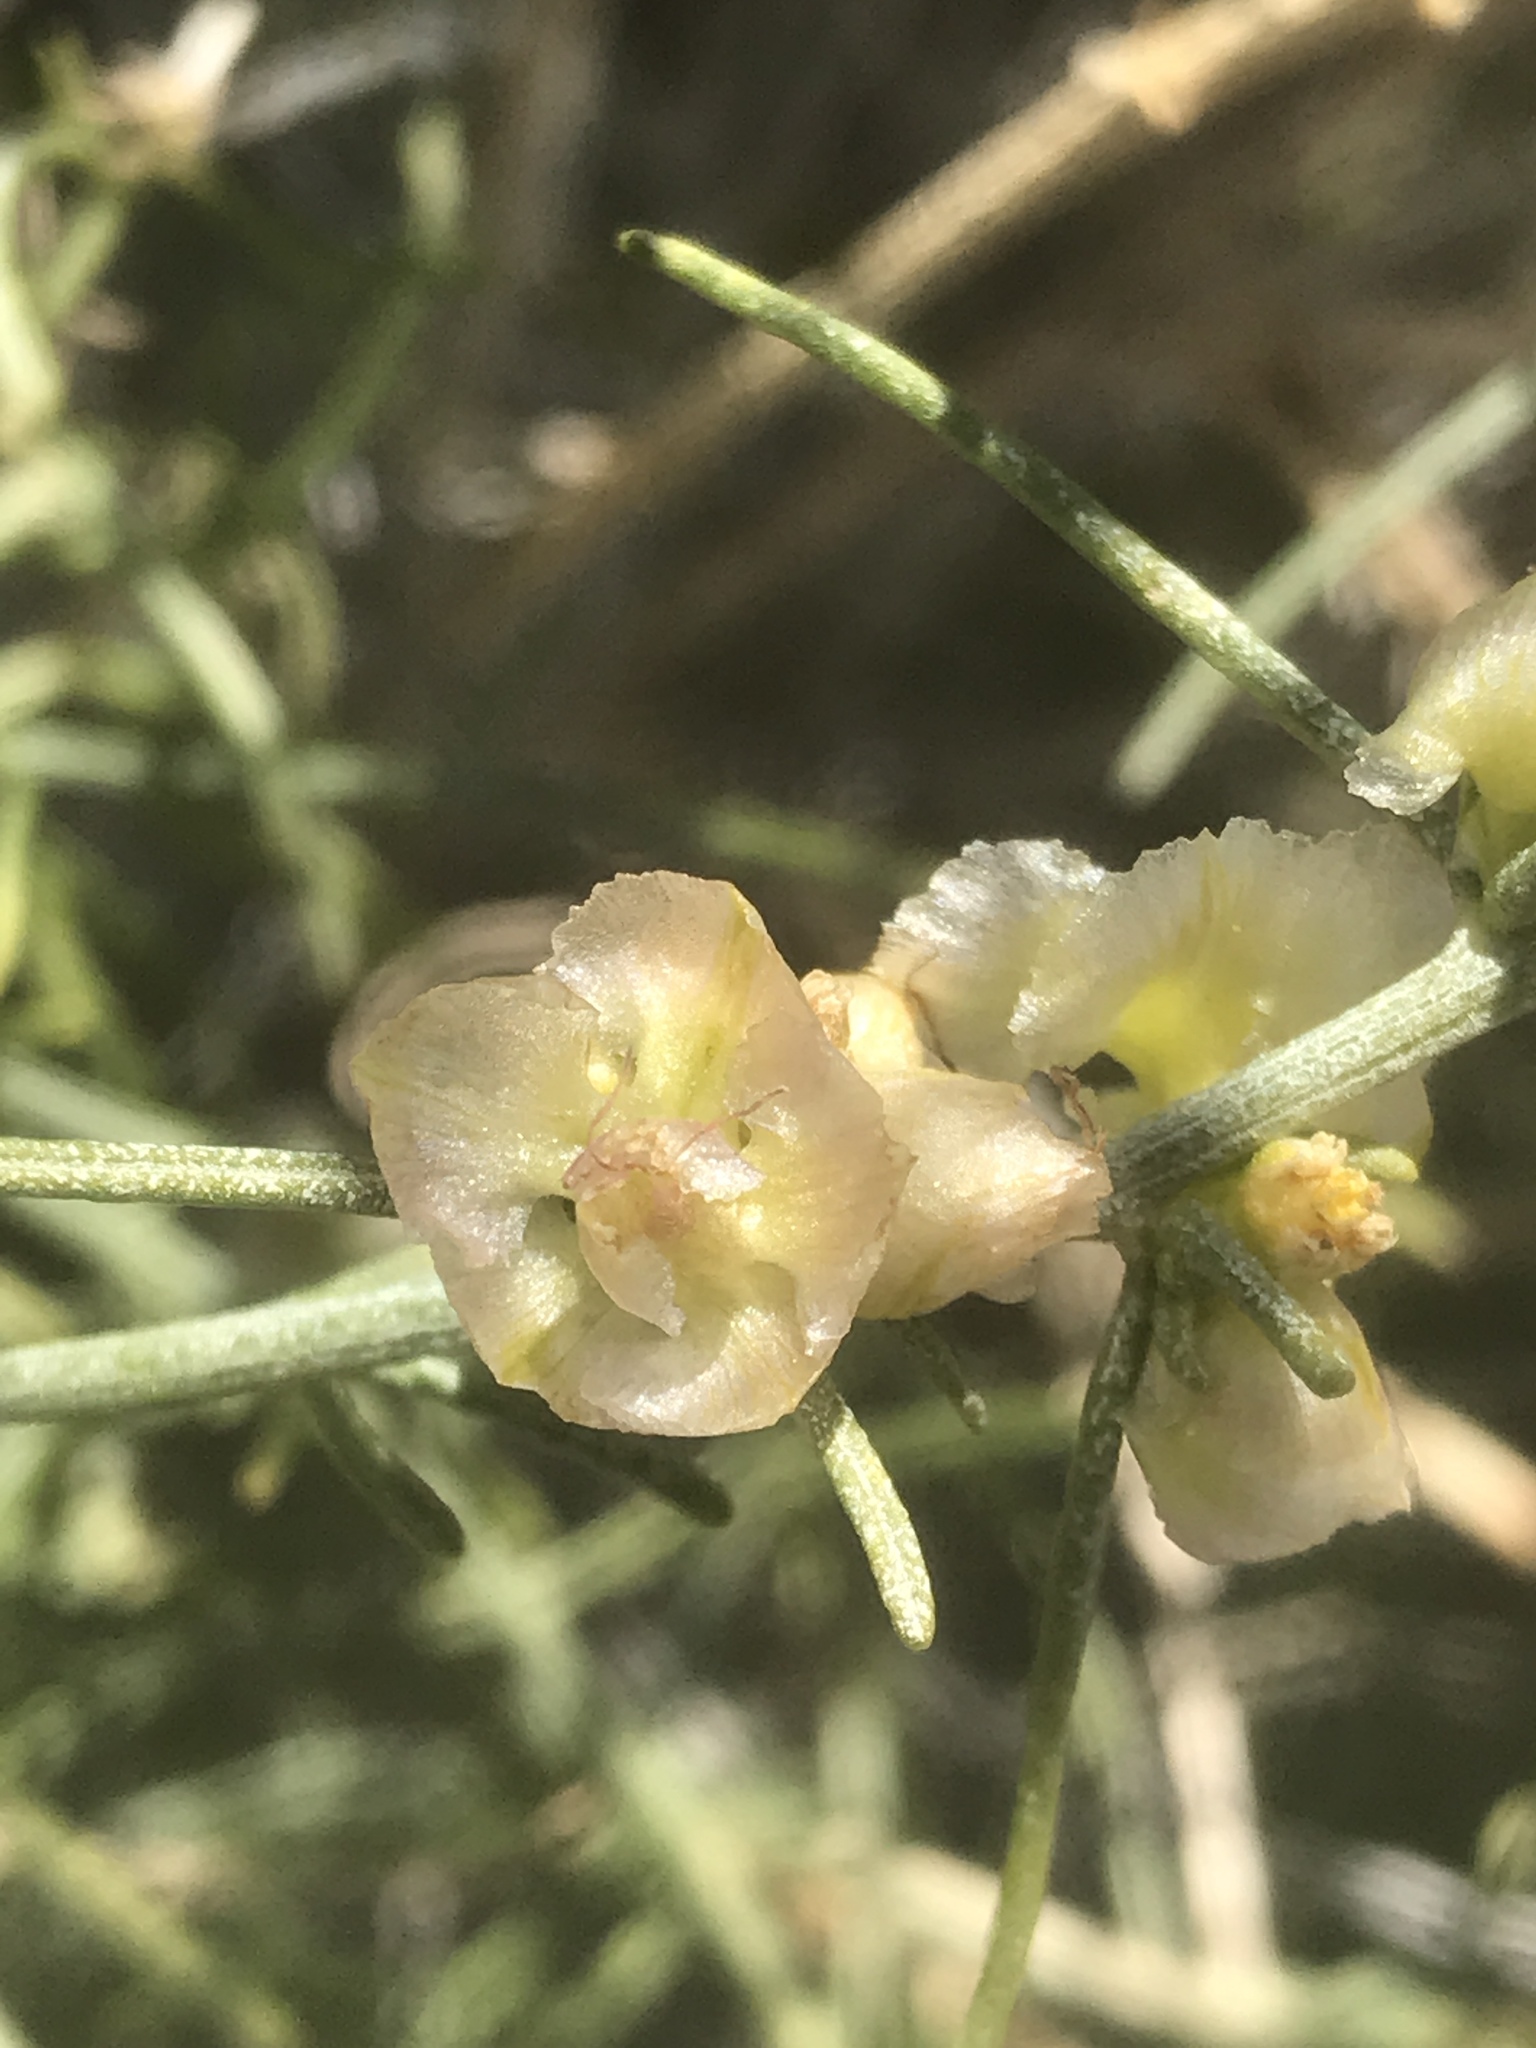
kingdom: Plantae
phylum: Tracheophyta
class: Magnoliopsida
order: Asterales
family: Asteraceae
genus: Ambrosia
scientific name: Ambrosia salsola
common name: Burrobrush
